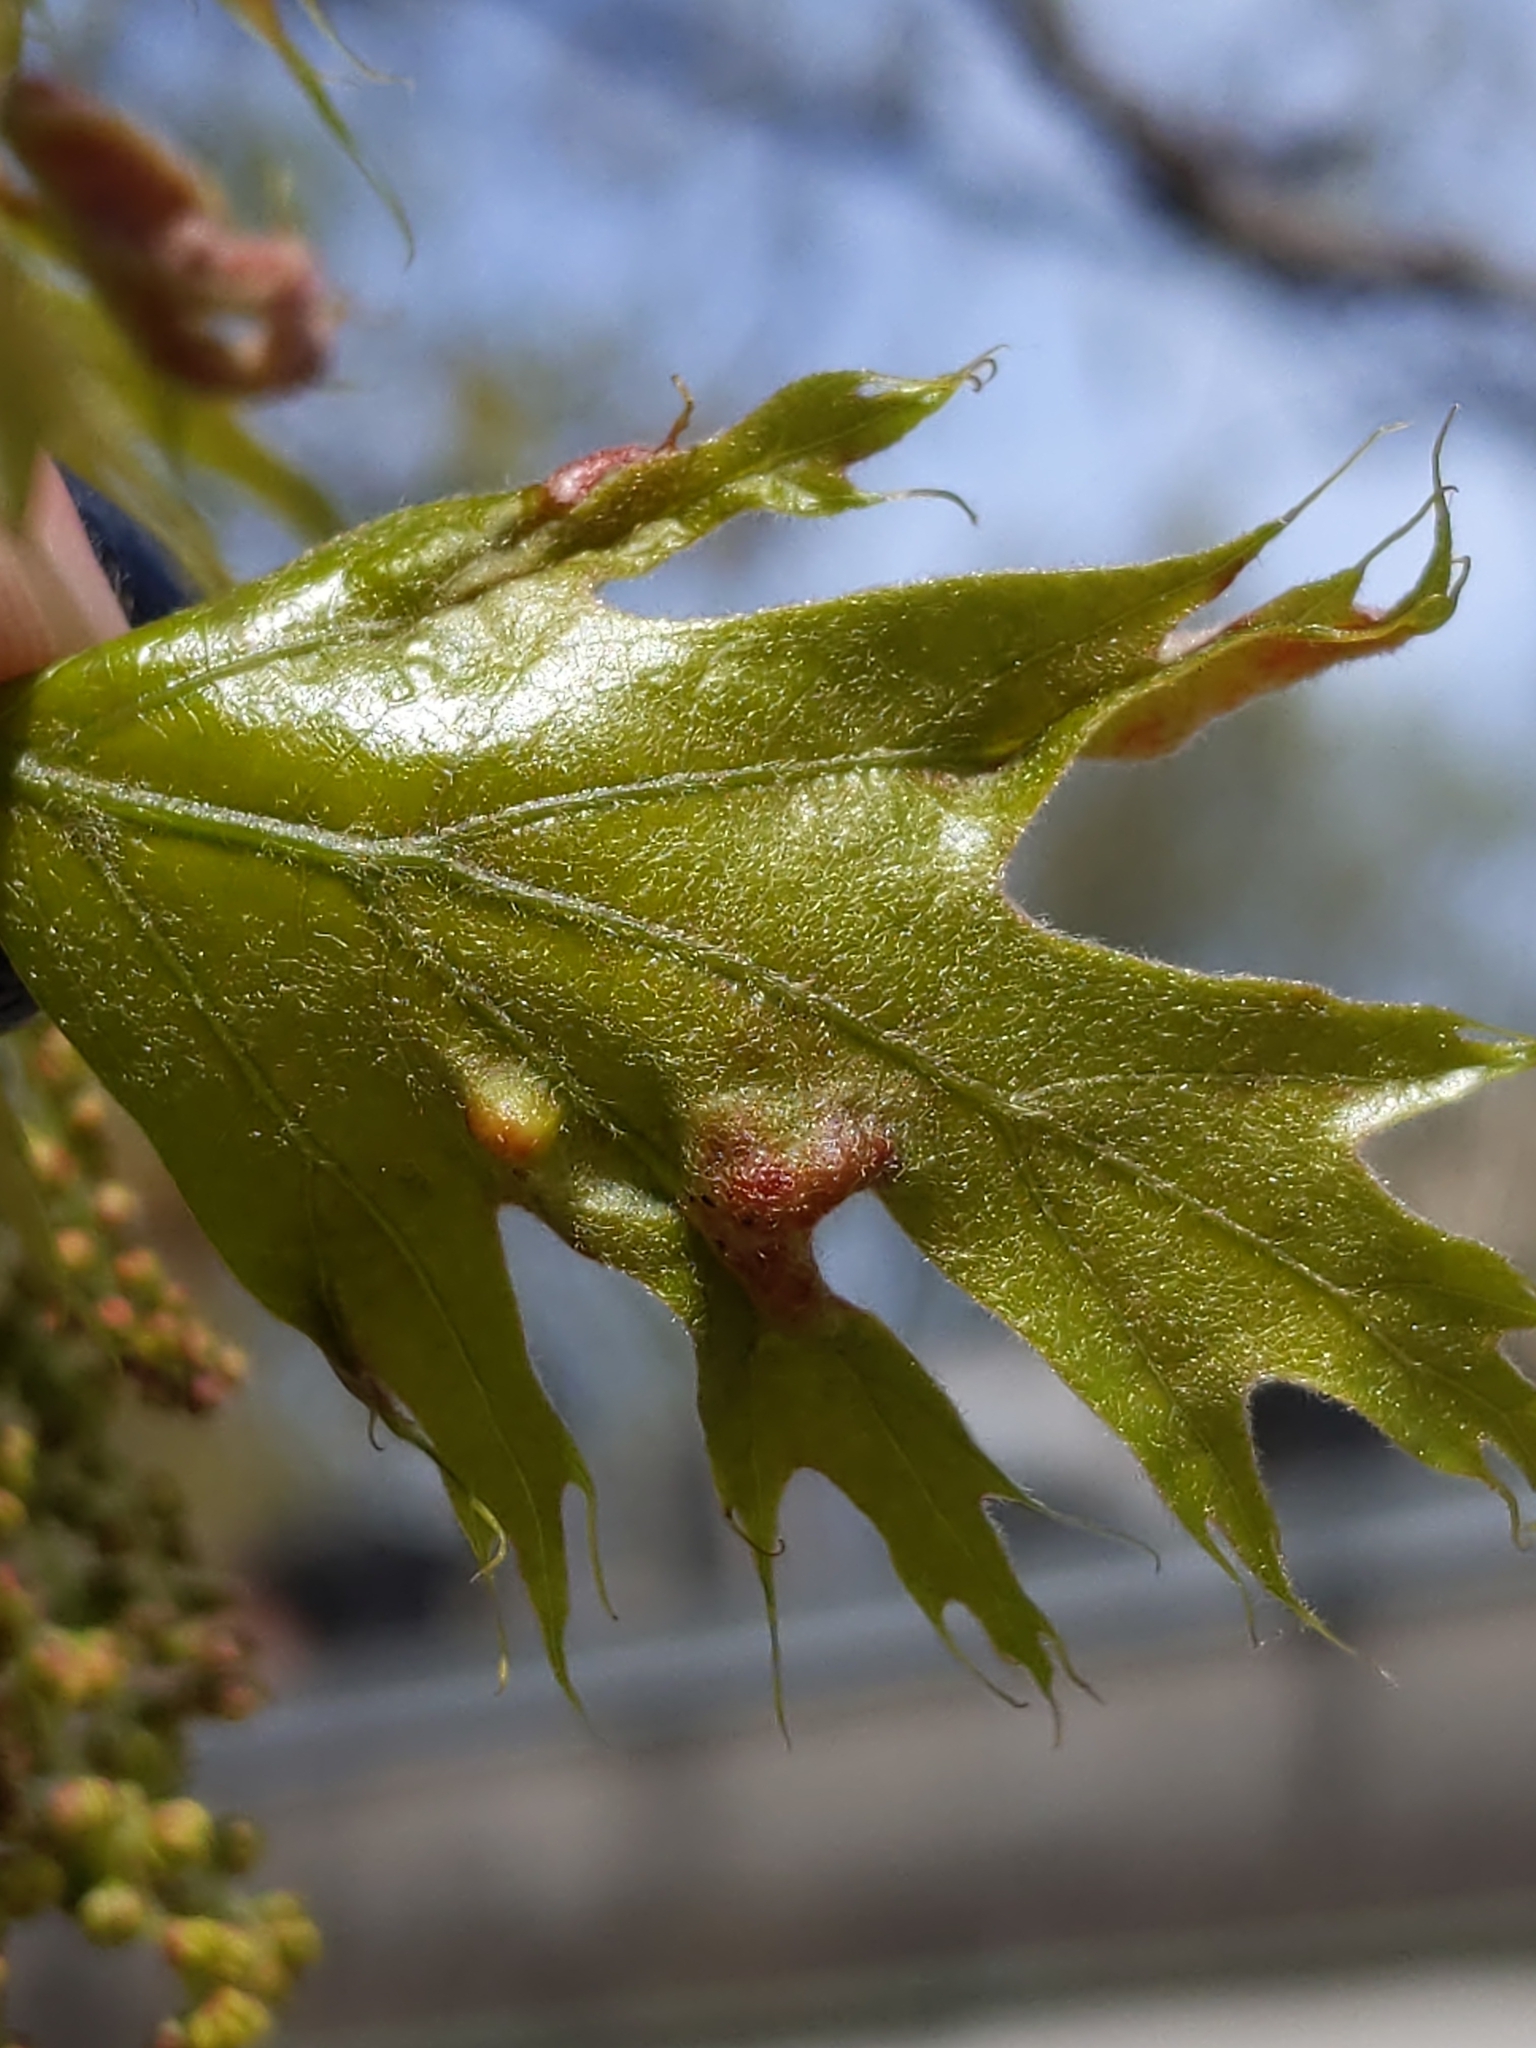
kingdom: Animalia
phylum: Arthropoda
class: Arachnida
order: Trombidiformes
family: Eriophyidae
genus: Aceria
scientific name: Aceria
